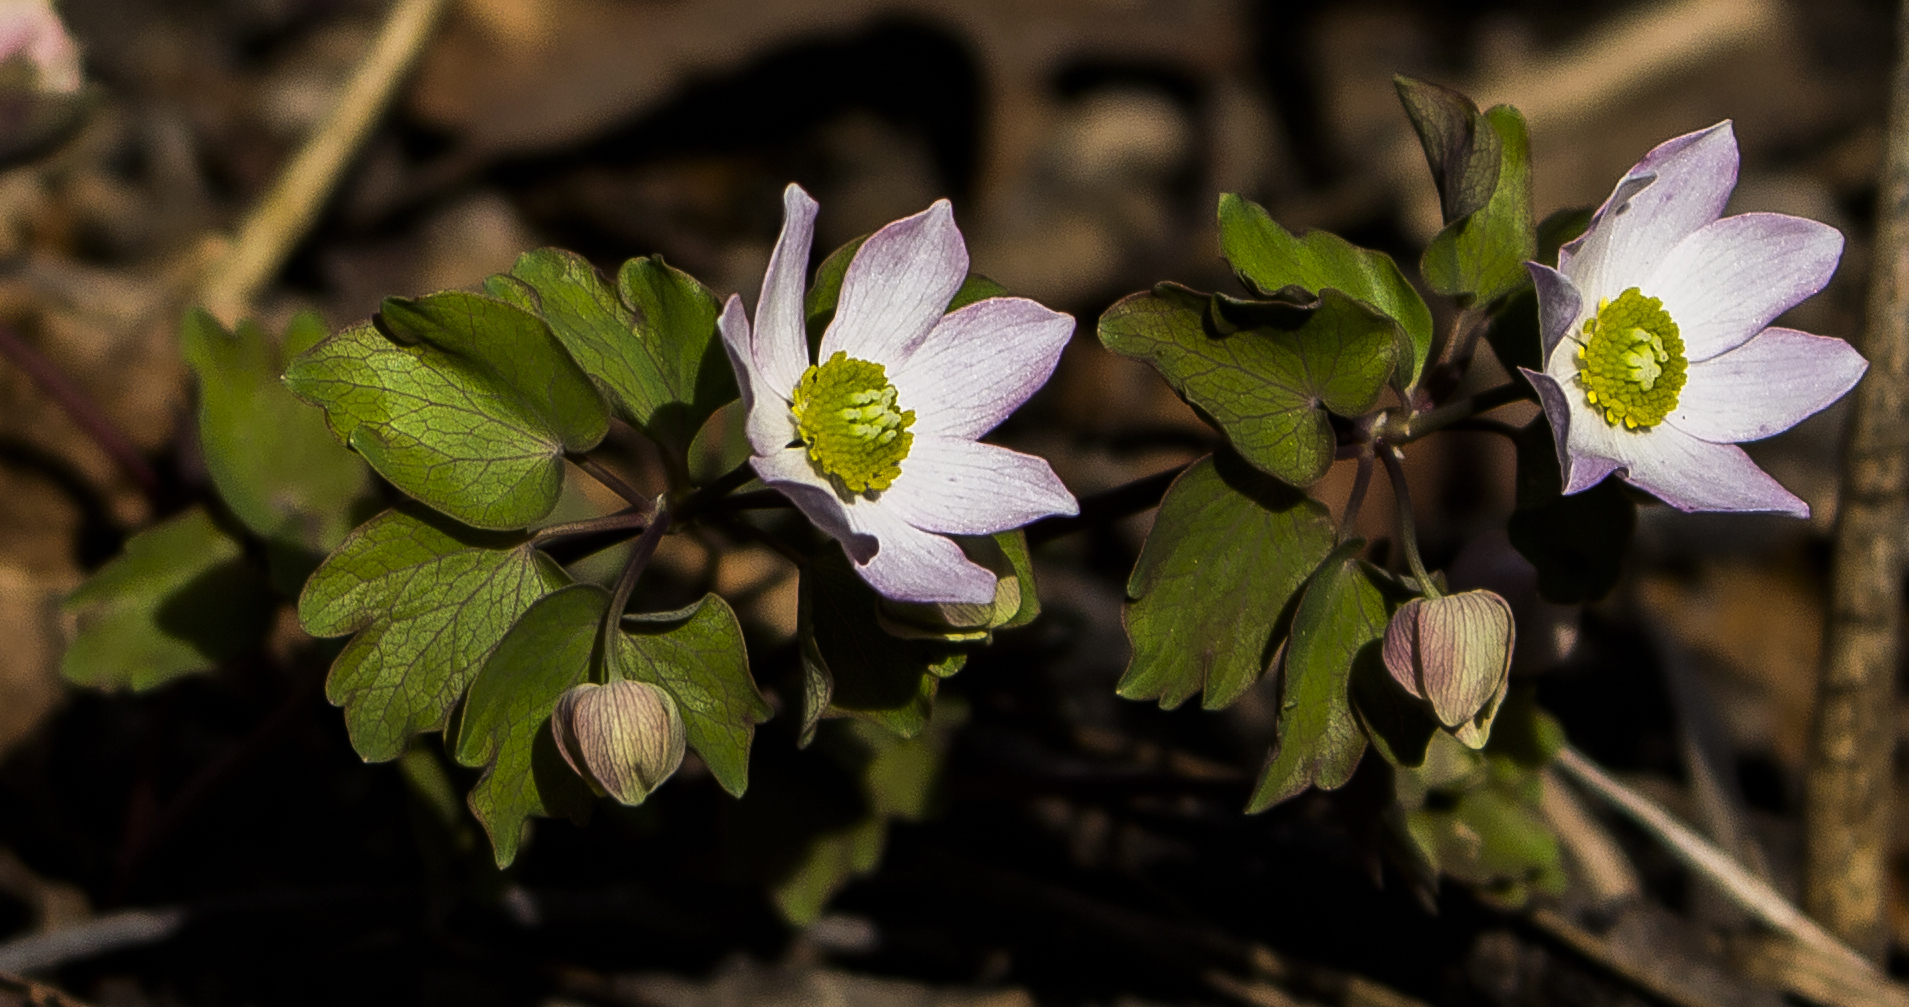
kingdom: Plantae
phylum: Tracheophyta
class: Magnoliopsida
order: Ranunculales
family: Ranunculaceae
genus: Thalictrum
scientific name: Thalictrum thalictroides
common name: Rue-anemone
